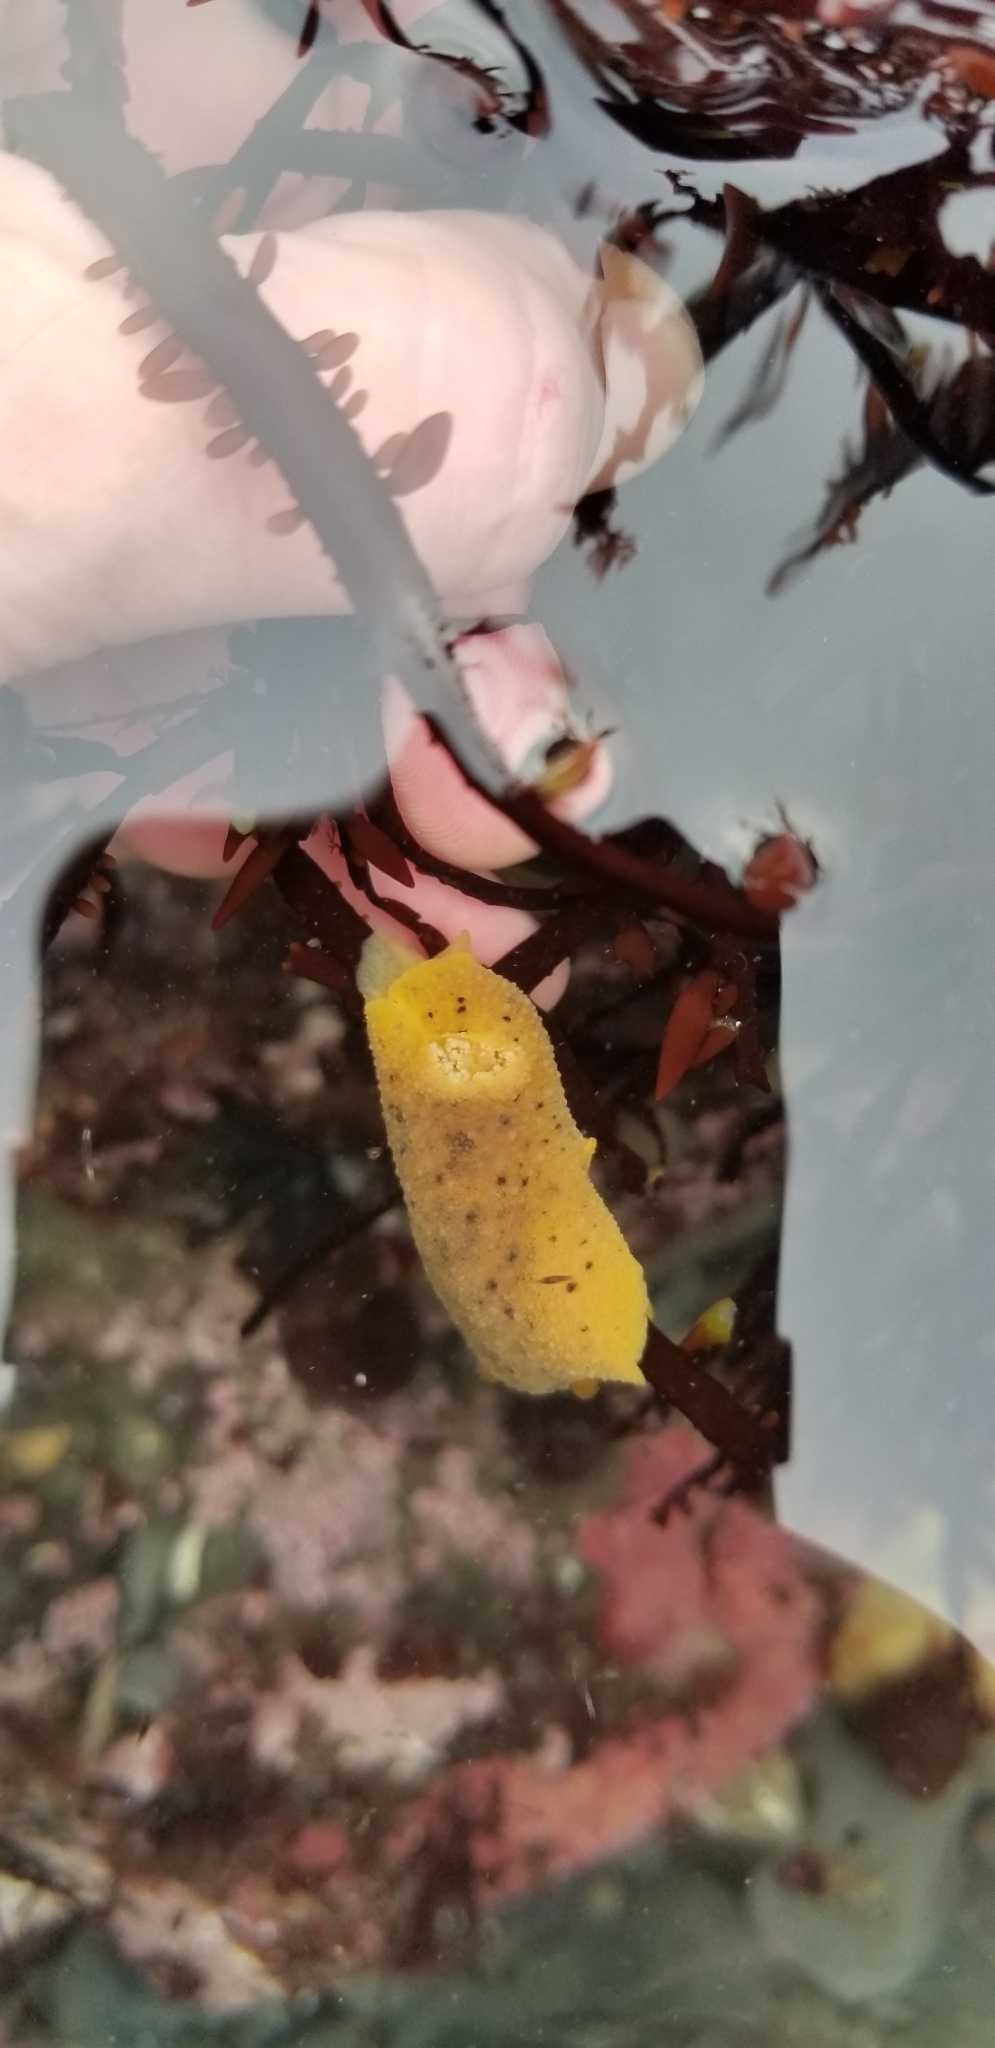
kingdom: Animalia
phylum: Mollusca
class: Gastropoda
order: Nudibranchia
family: Discodorididae
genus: Geitodoris
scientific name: Geitodoris heathi
